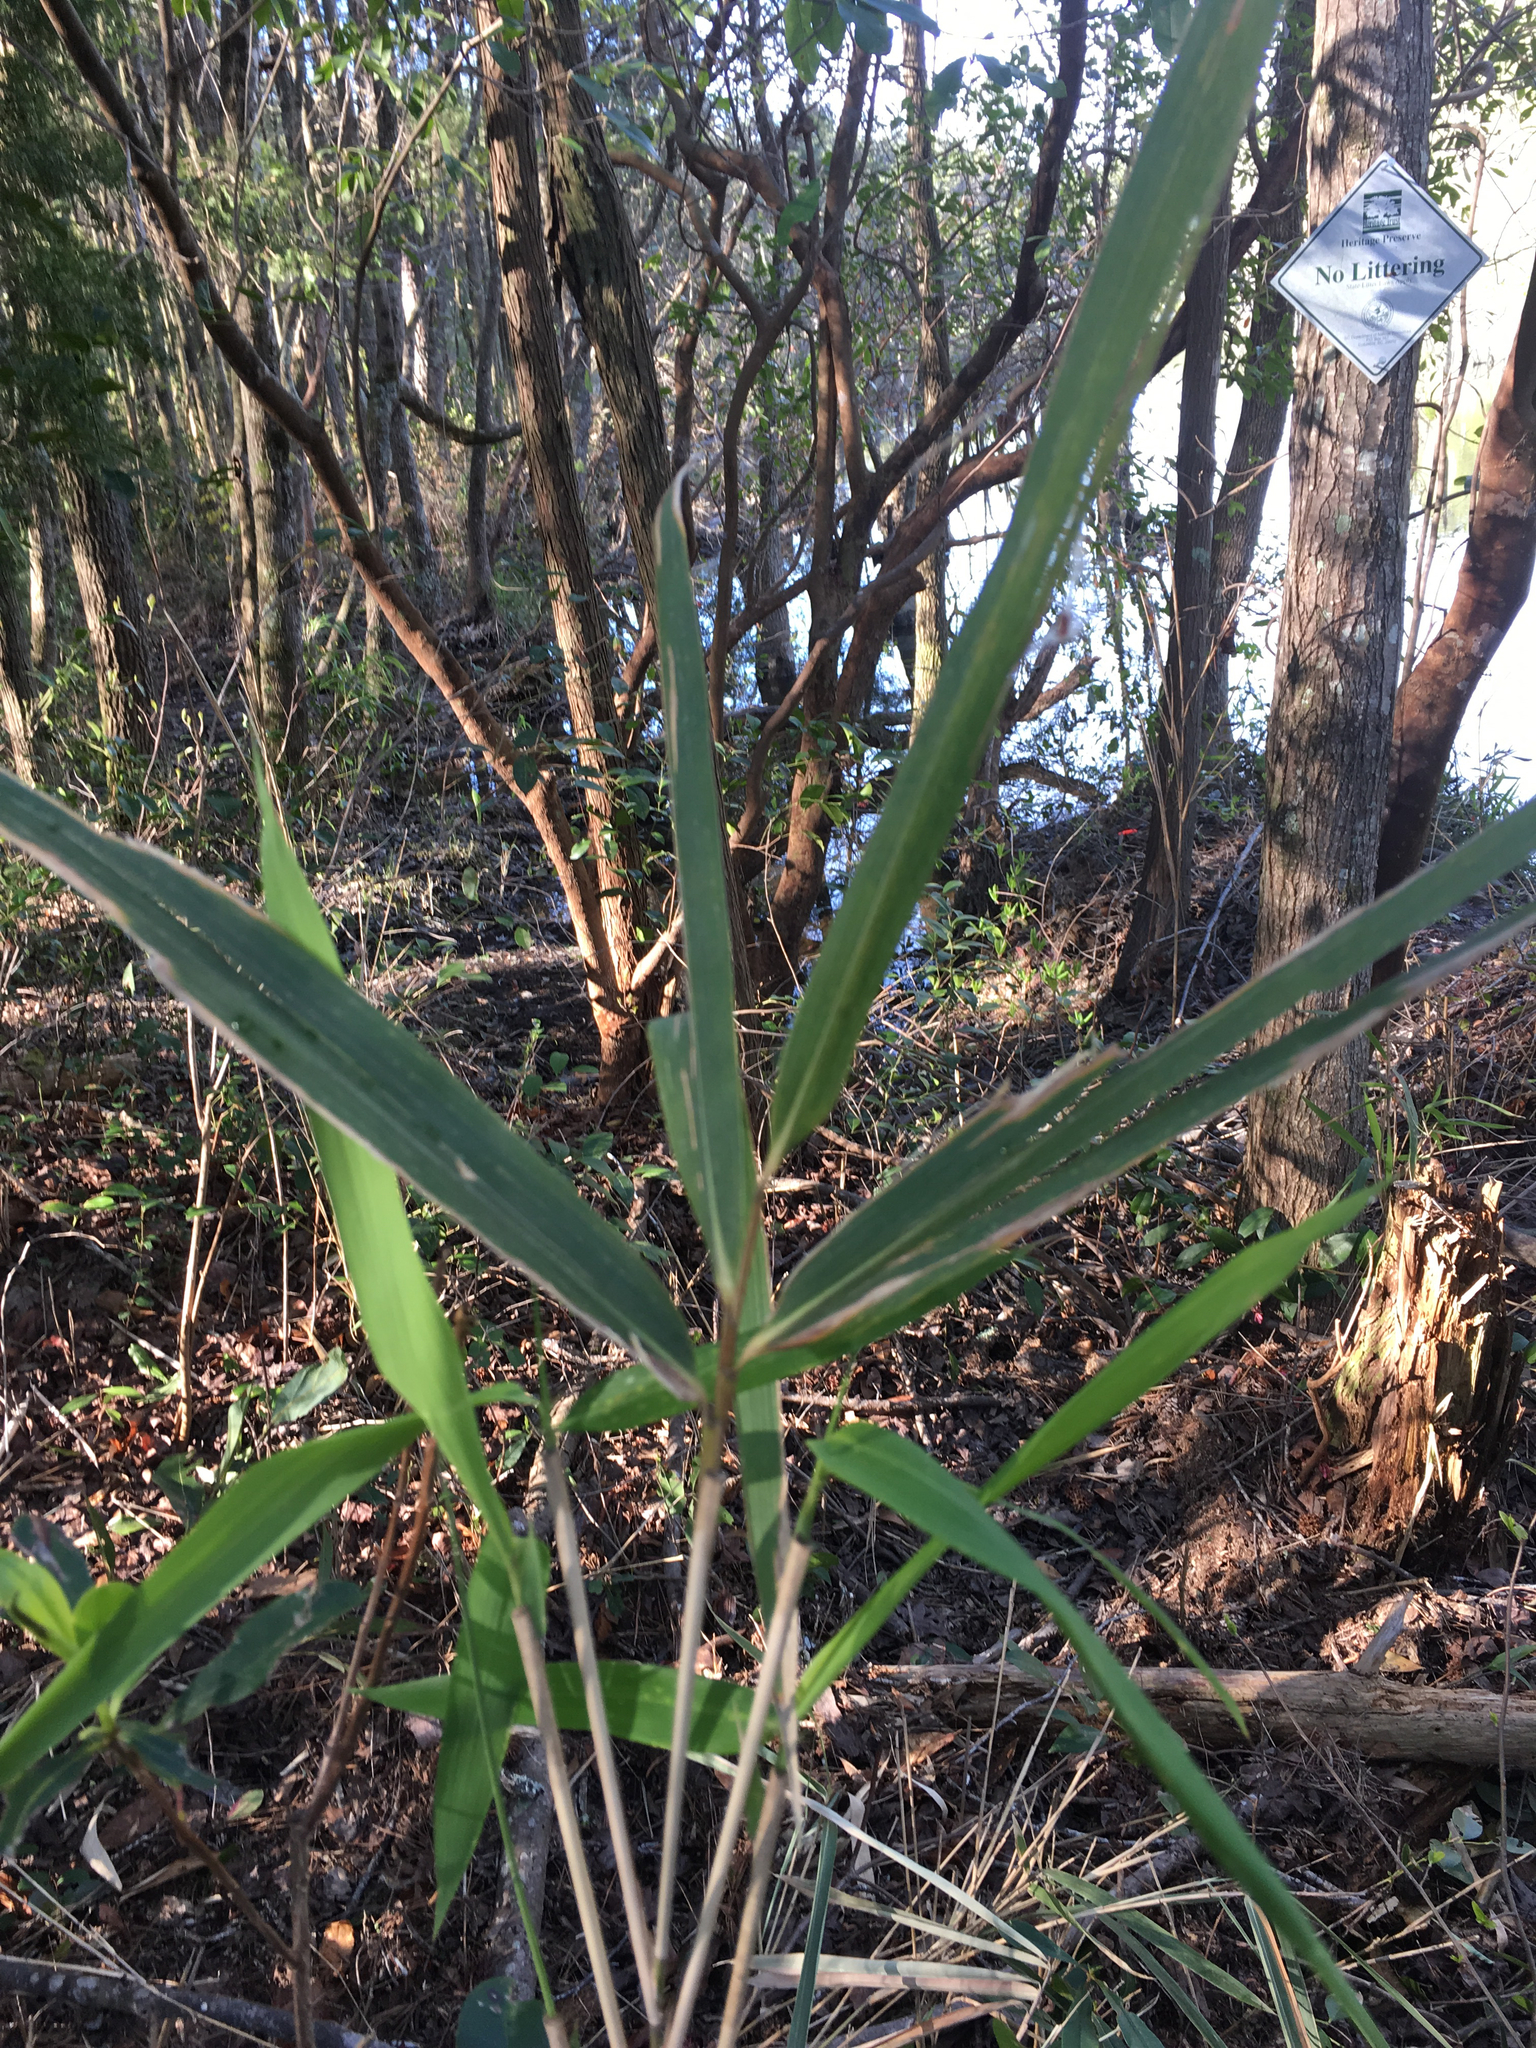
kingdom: Plantae
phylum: Tracheophyta
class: Liliopsida
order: Poales
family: Poaceae
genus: Arundinaria
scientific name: Arundinaria tecta
